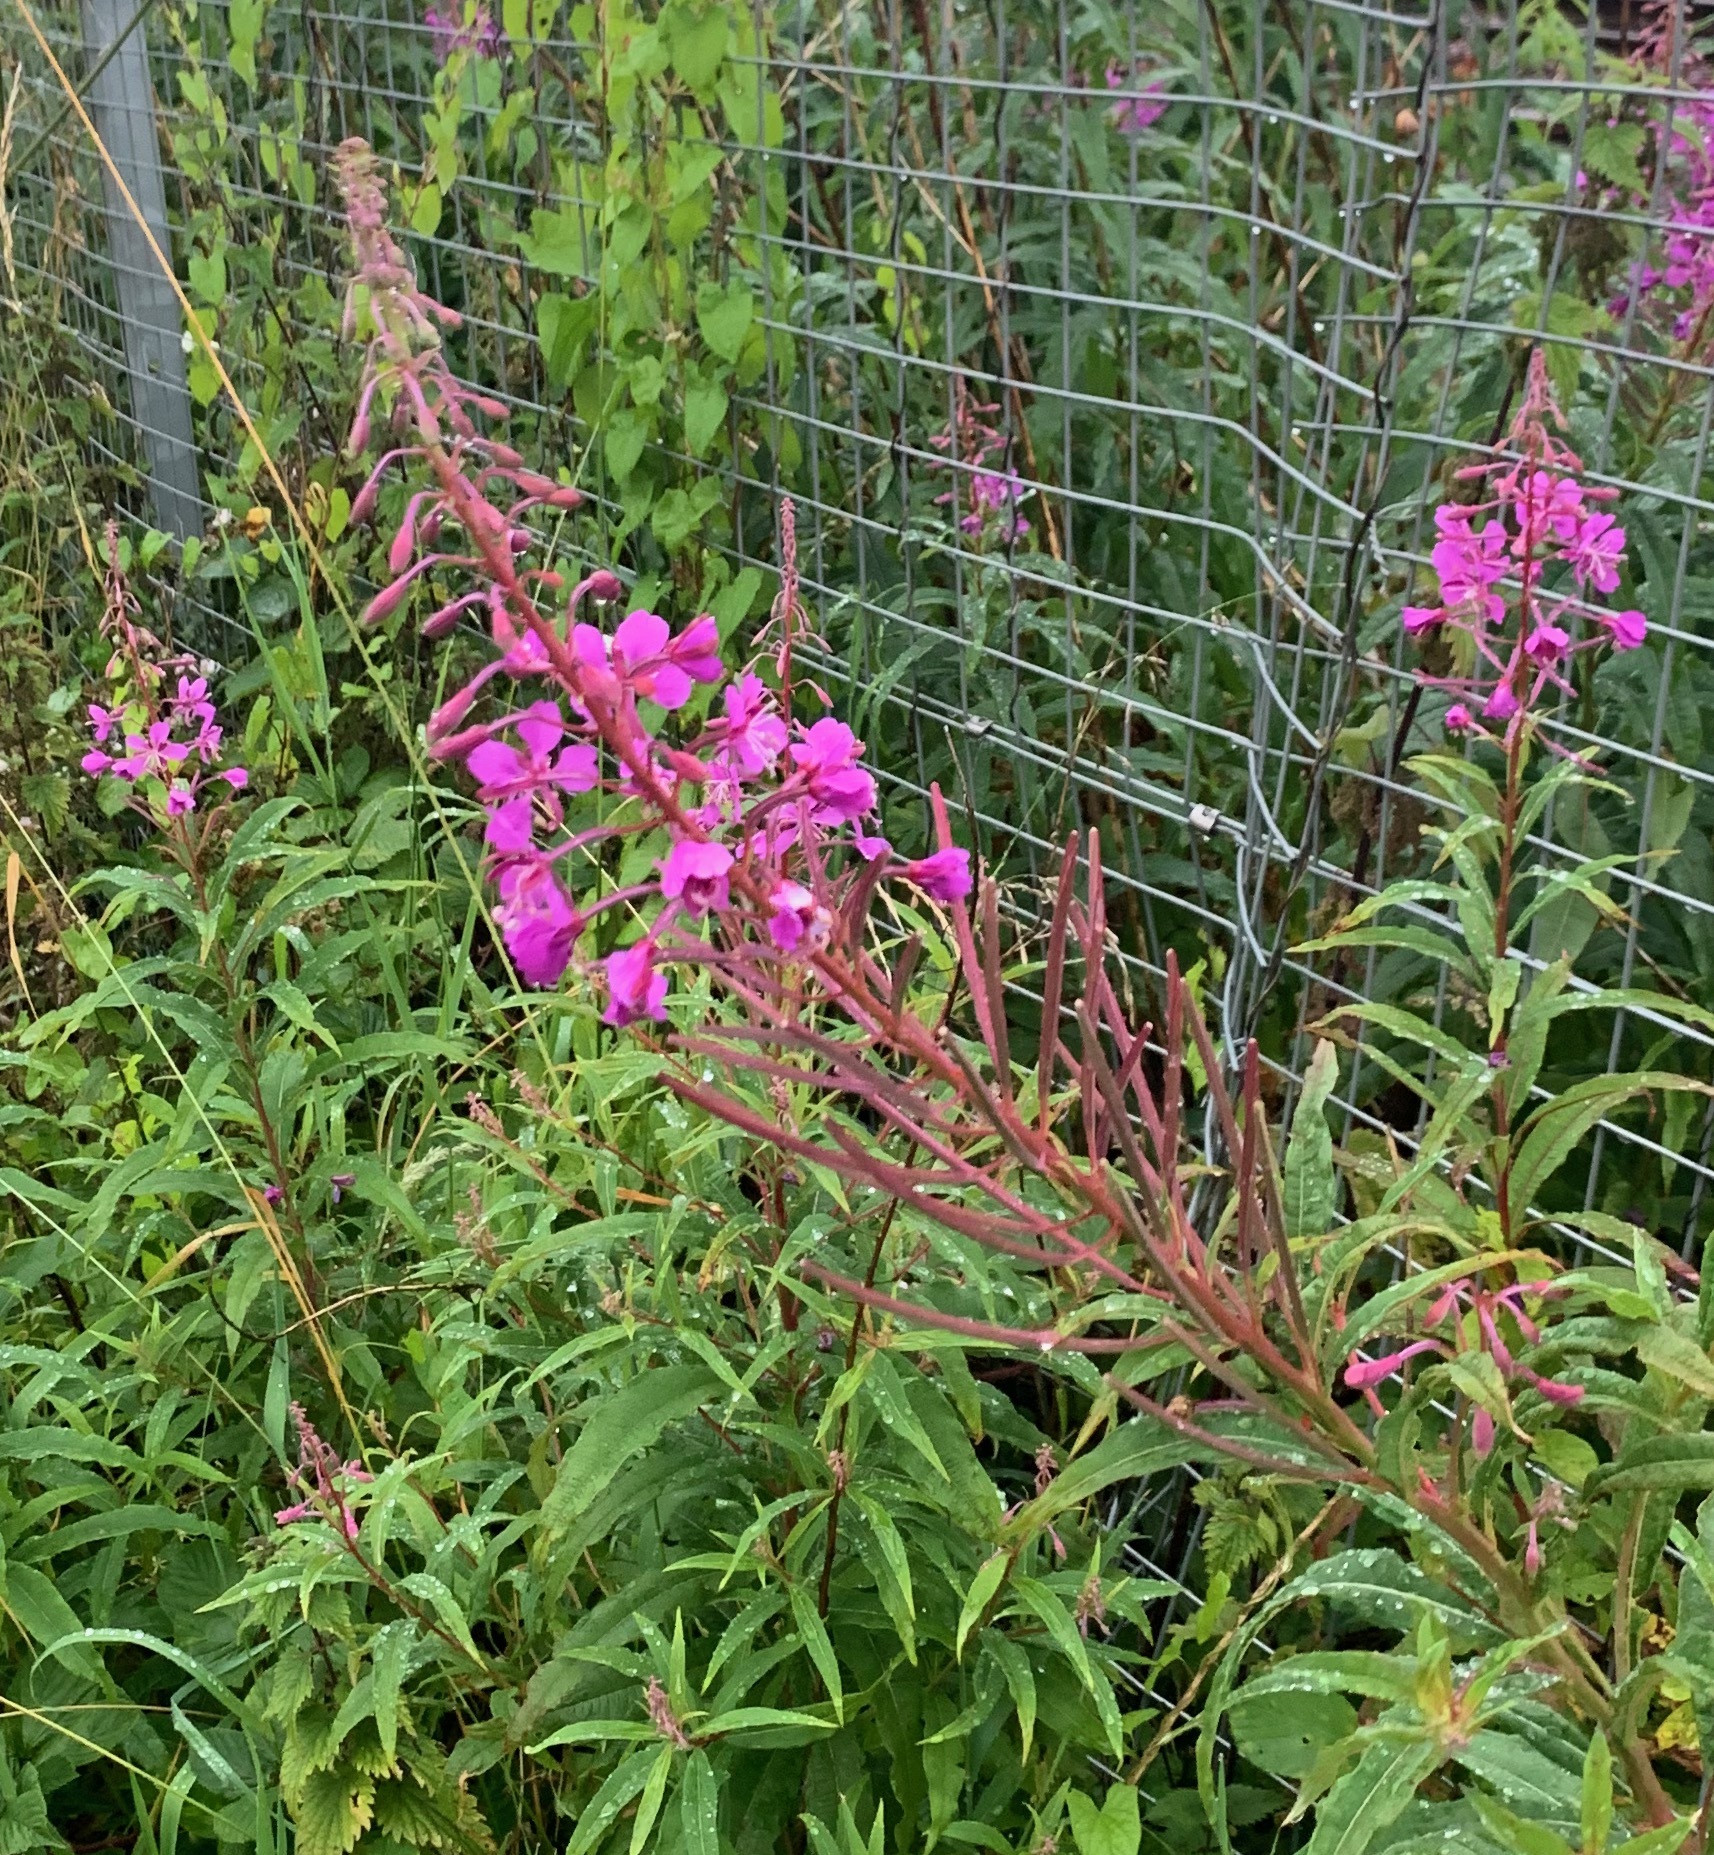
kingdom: Plantae
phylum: Tracheophyta
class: Magnoliopsida
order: Myrtales
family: Onagraceae
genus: Chamaenerion
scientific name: Chamaenerion angustifolium
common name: Fireweed
